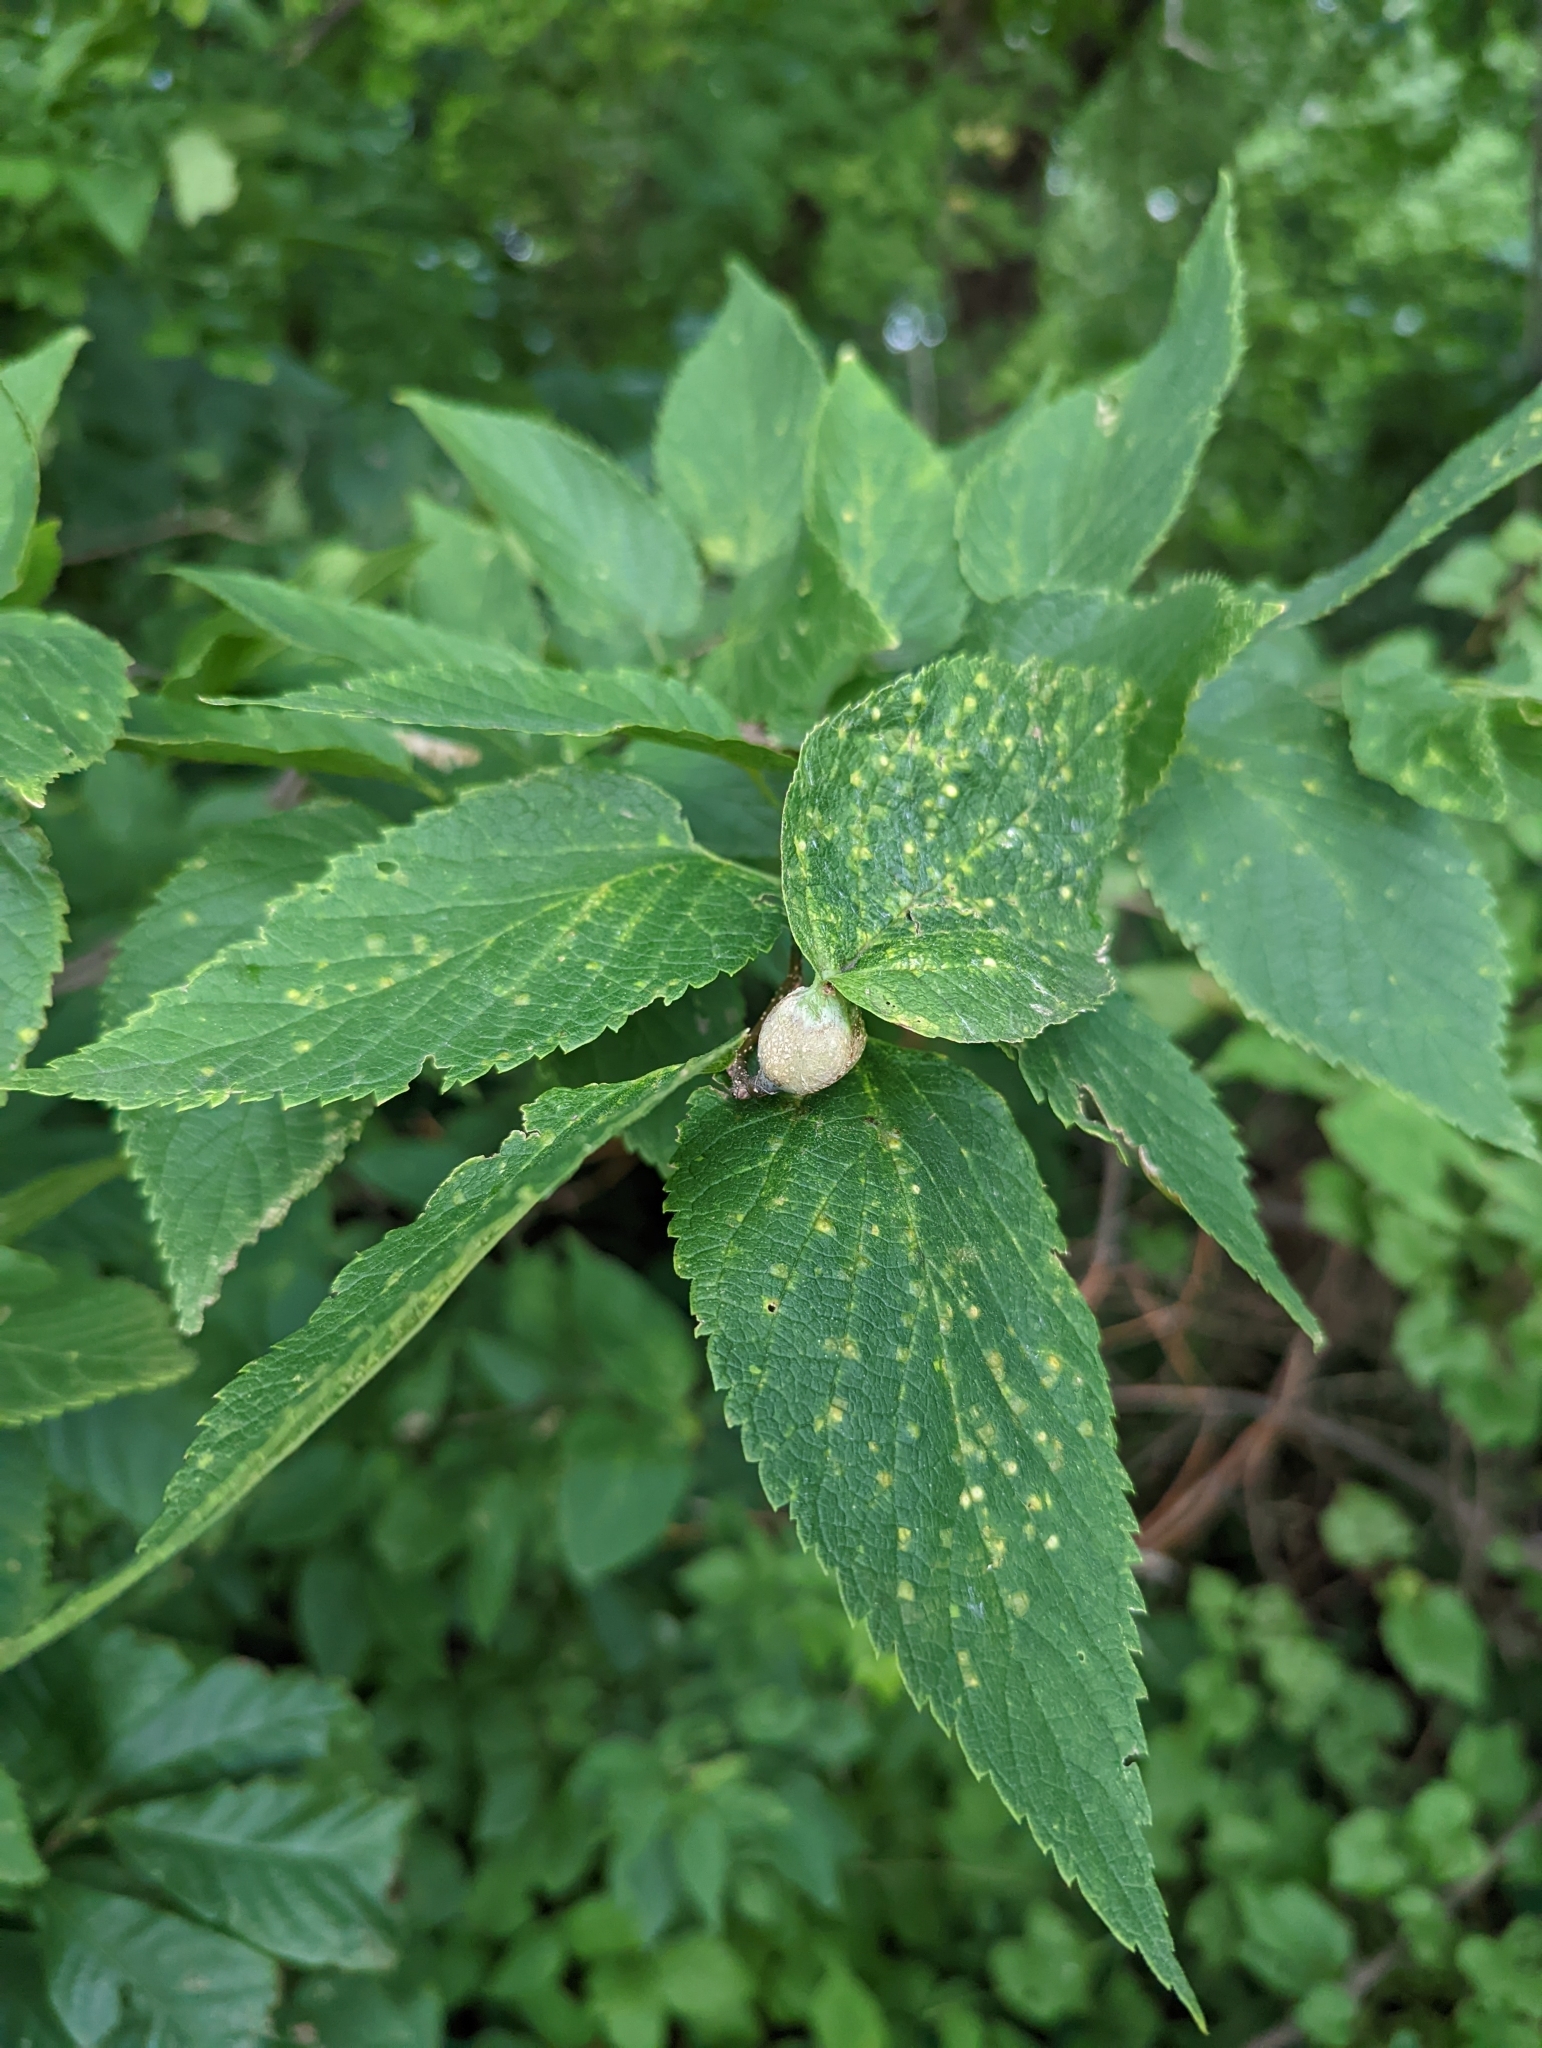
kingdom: Animalia
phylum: Arthropoda
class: Insecta
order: Hemiptera
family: Aphalaridae
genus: Pachypsylla
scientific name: Pachypsylla venusta
